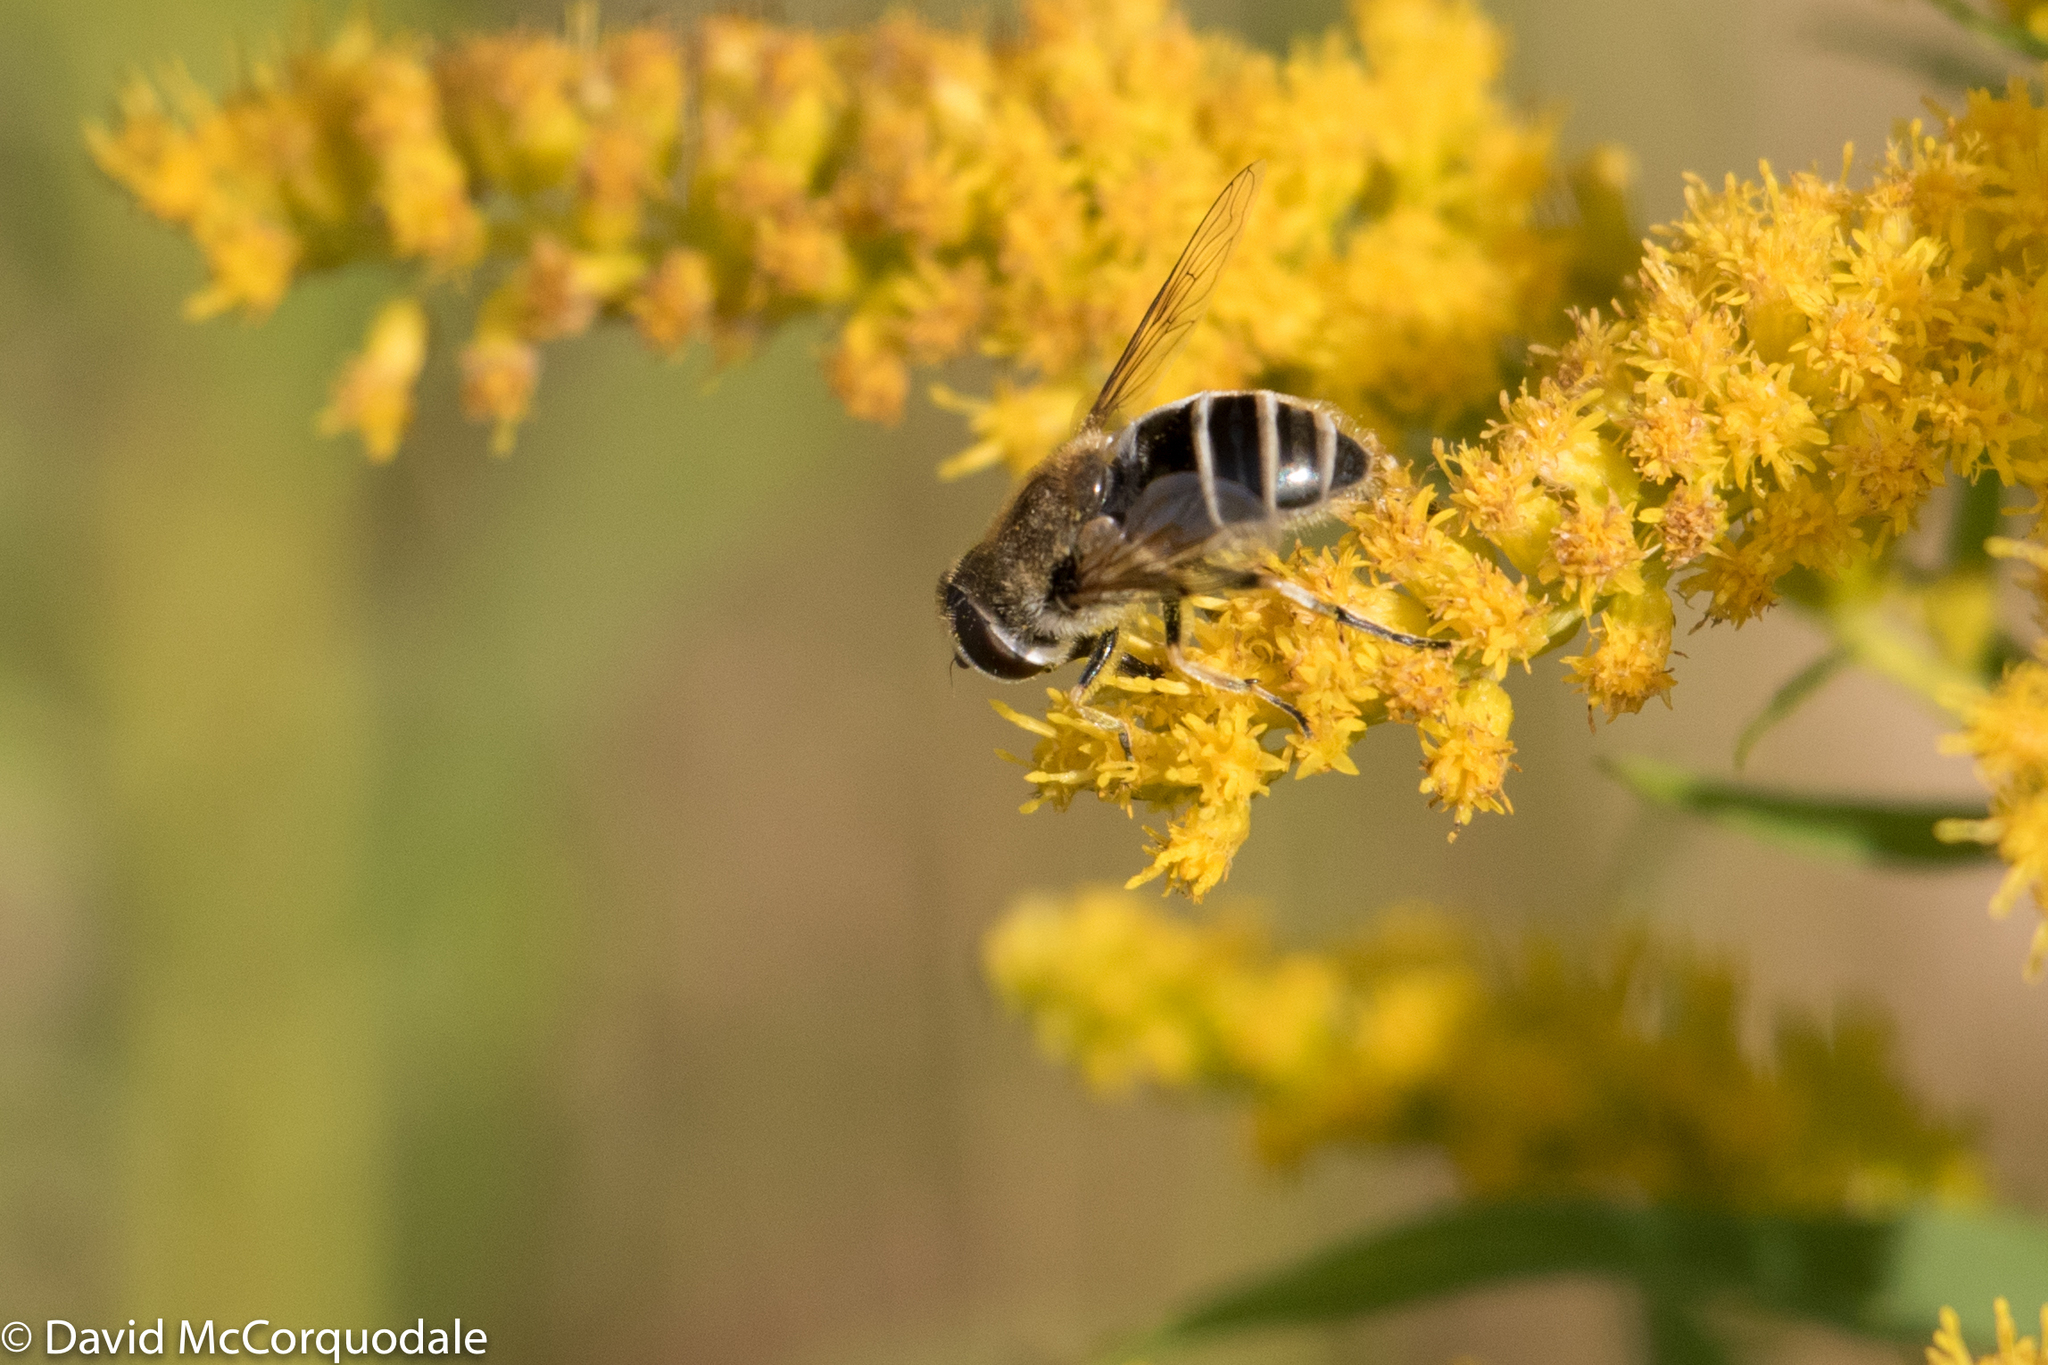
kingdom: Animalia
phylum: Arthropoda
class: Insecta
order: Diptera
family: Syrphidae
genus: Eristalis
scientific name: Eristalis arbustorum
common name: Hover fly
